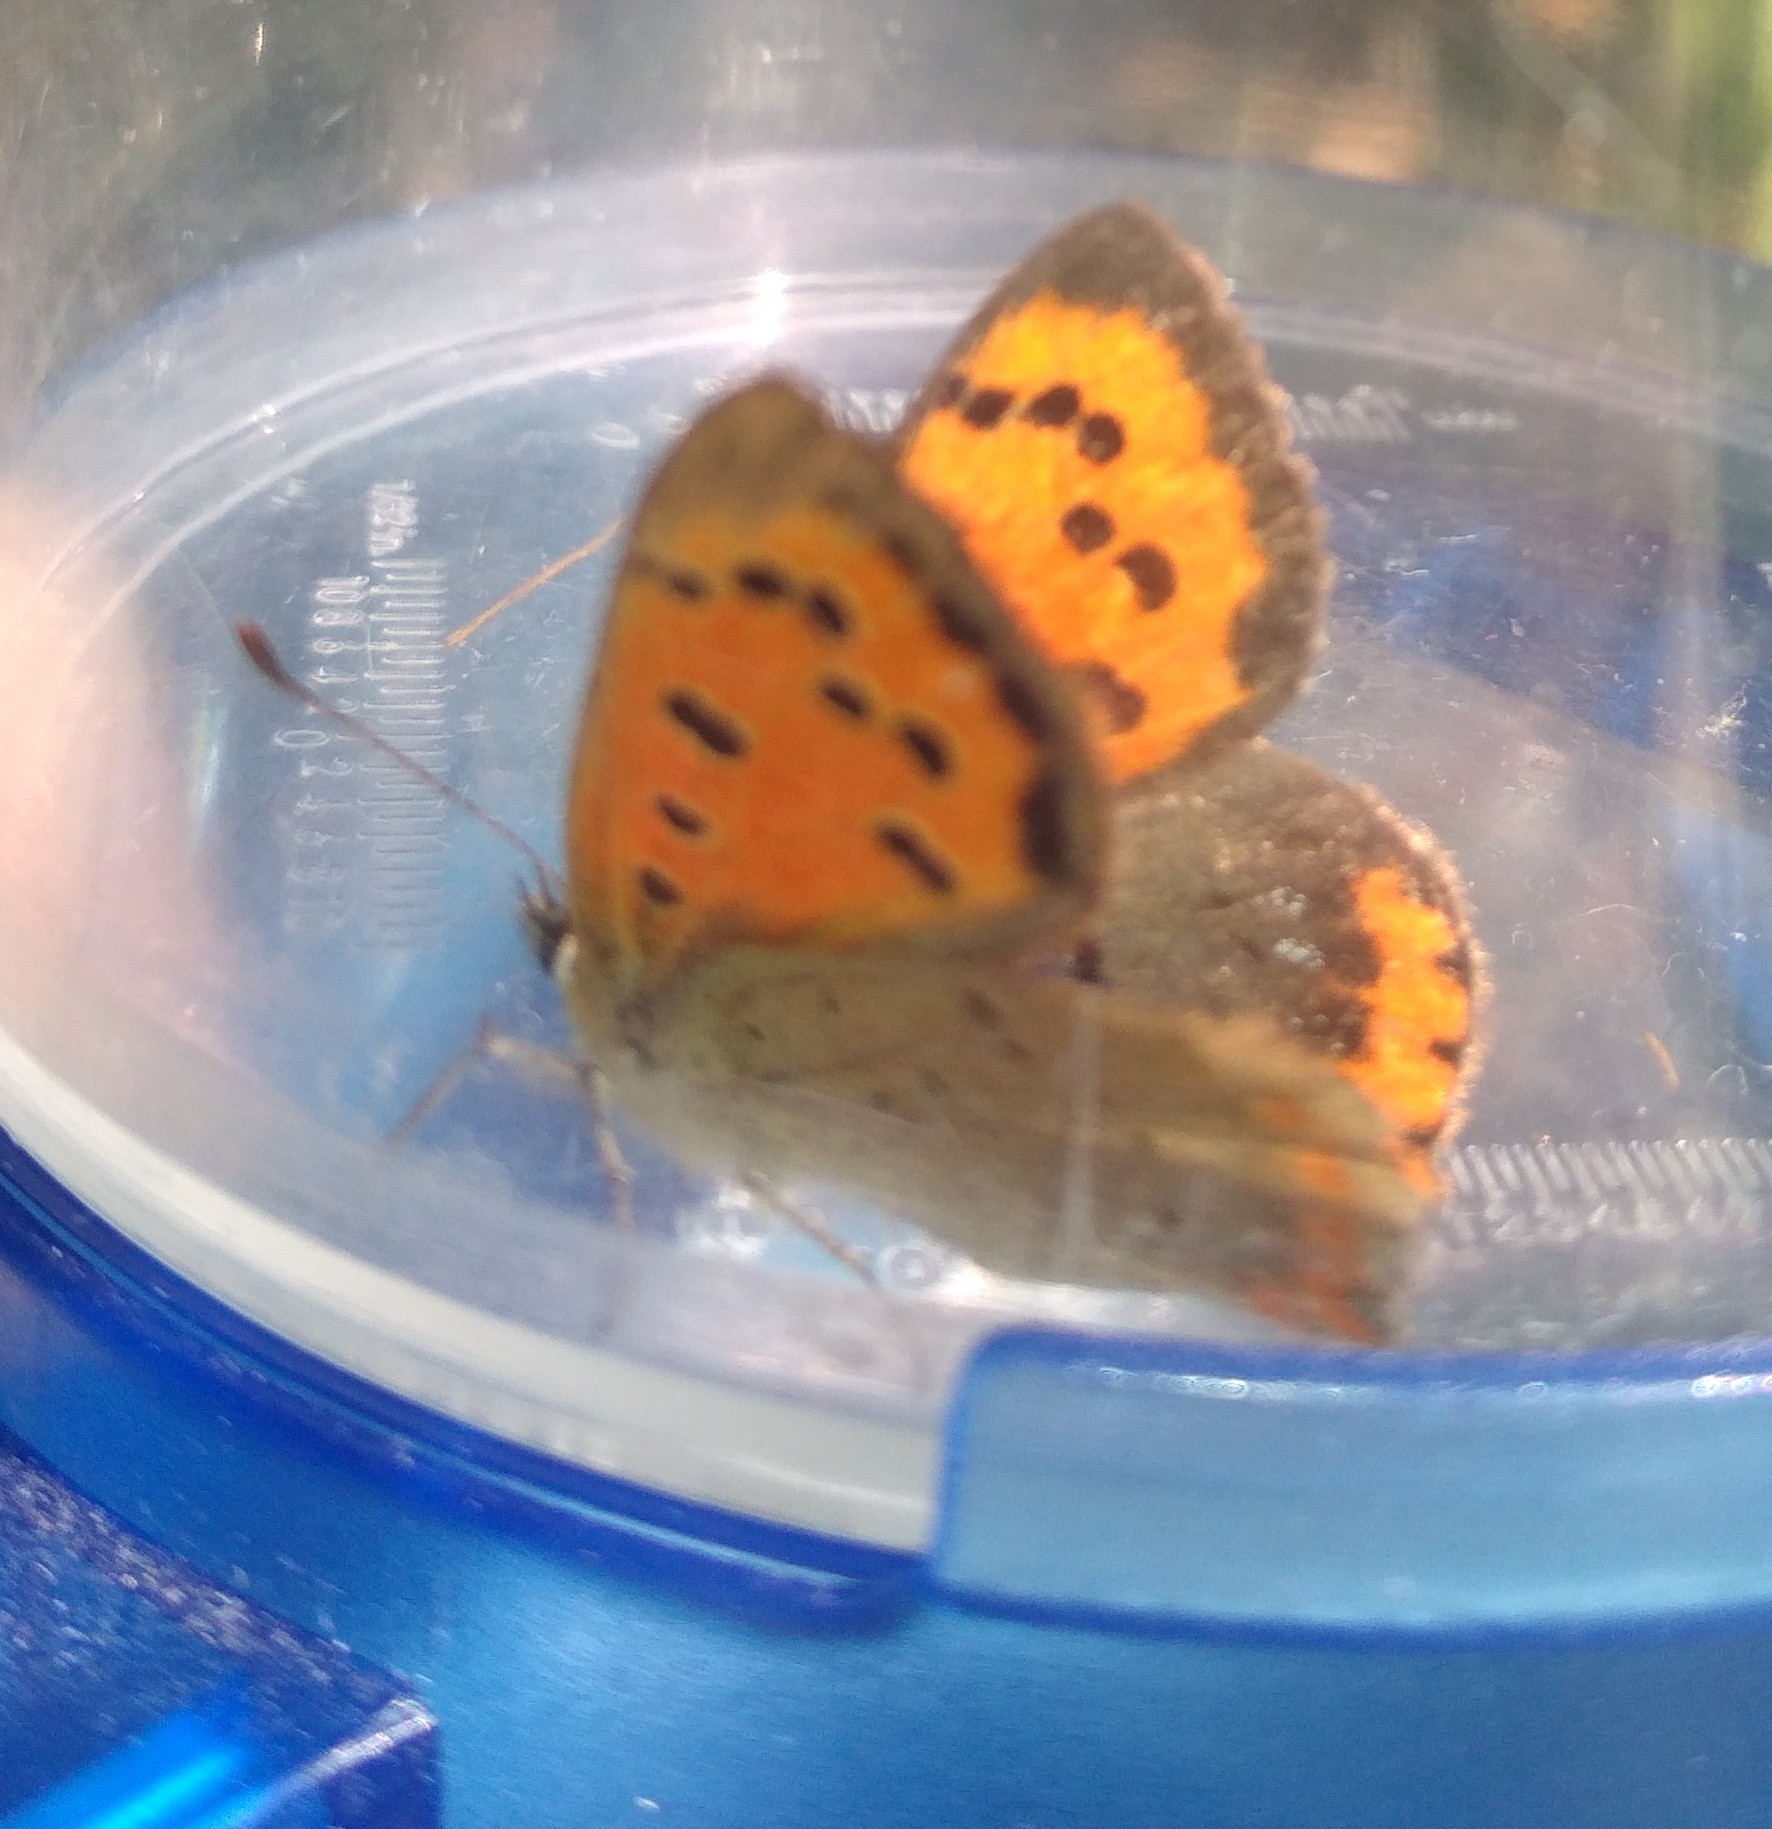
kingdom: Animalia
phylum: Arthropoda
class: Insecta
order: Lepidoptera
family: Lycaenidae
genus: Lycaena
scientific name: Lycaena phlaeas
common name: Small copper
